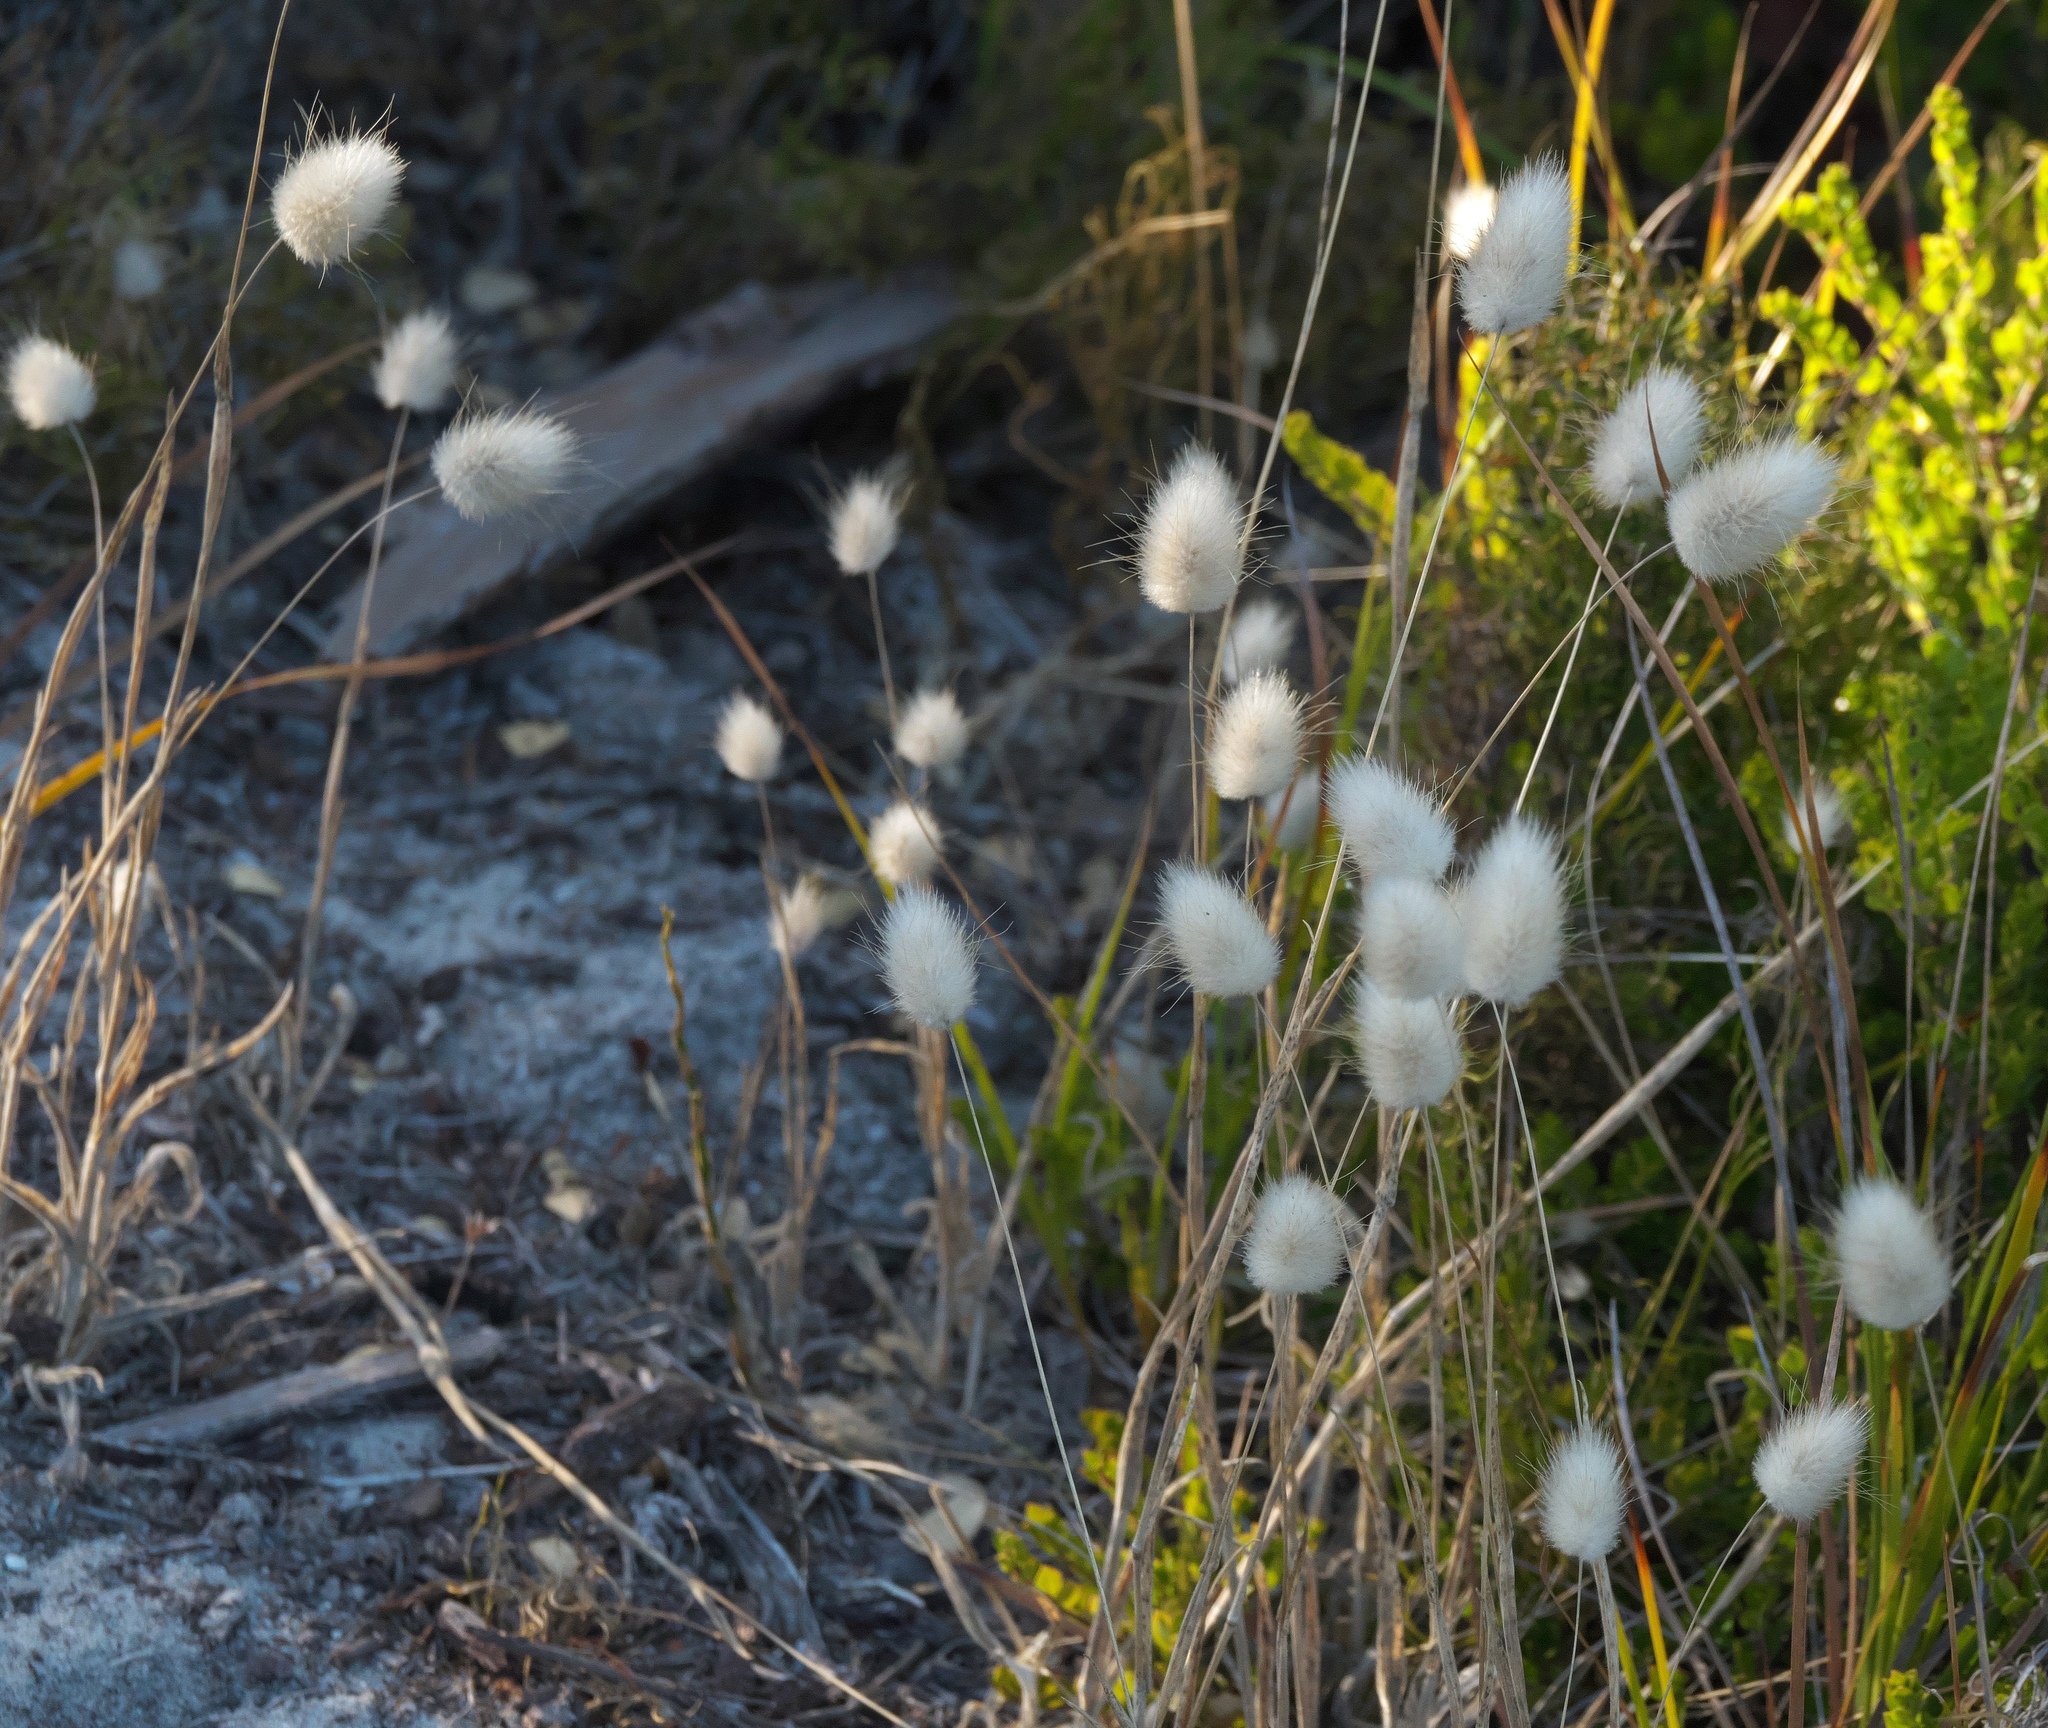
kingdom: Plantae
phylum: Tracheophyta
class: Liliopsida
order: Poales
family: Poaceae
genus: Lagurus
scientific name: Lagurus ovatus
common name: Hare's-tail
